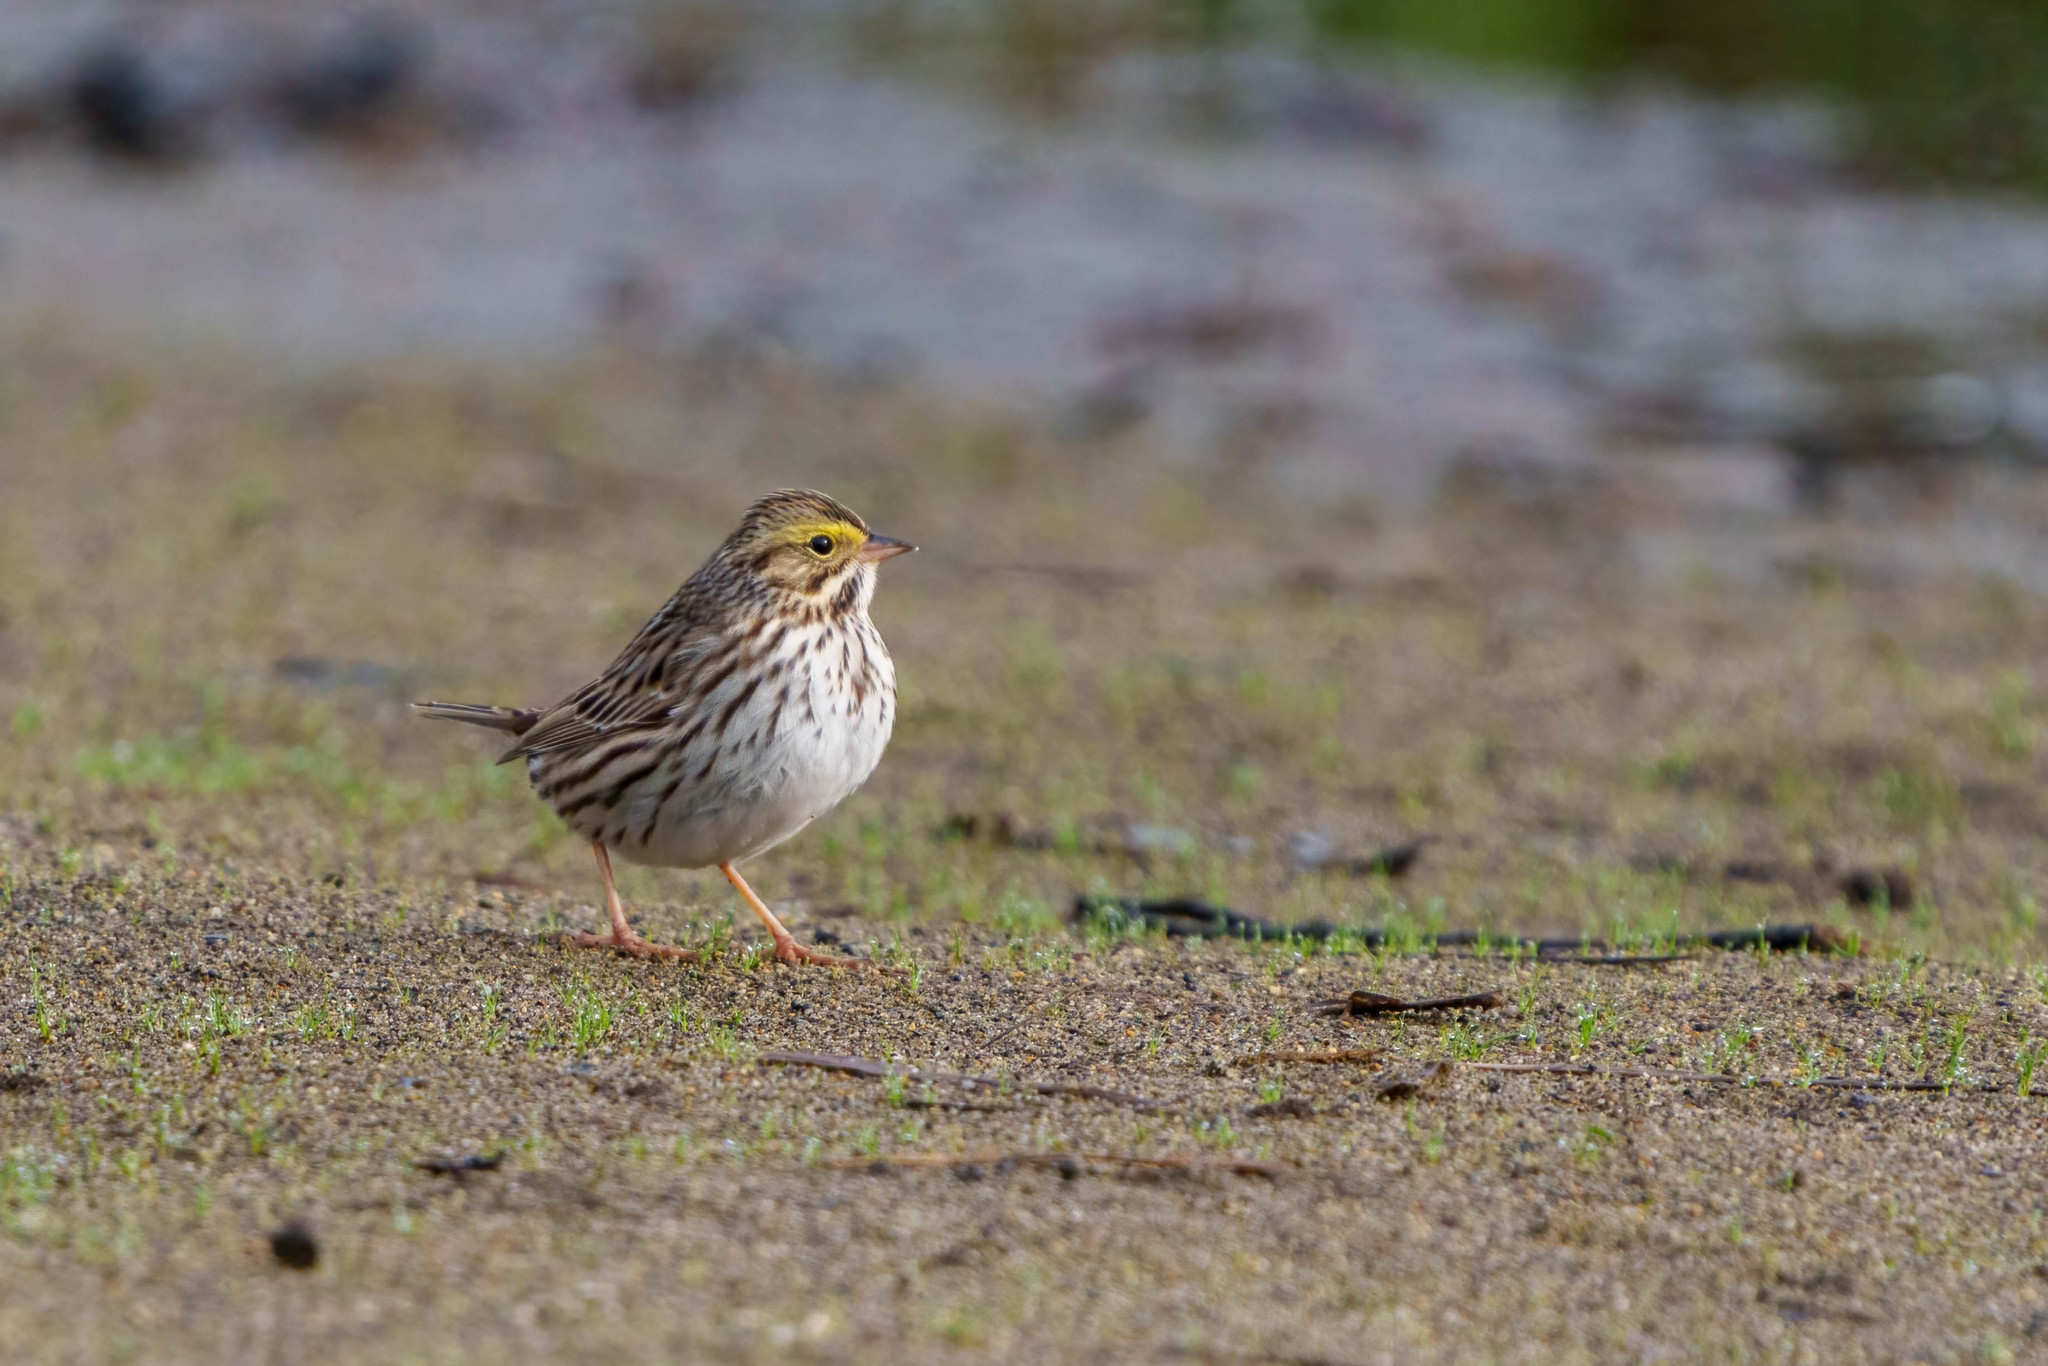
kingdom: Animalia
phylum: Chordata
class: Aves
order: Passeriformes
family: Passerellidae
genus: Passerculus
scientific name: Passerculus sandwichensis
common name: Savannah sparrow
